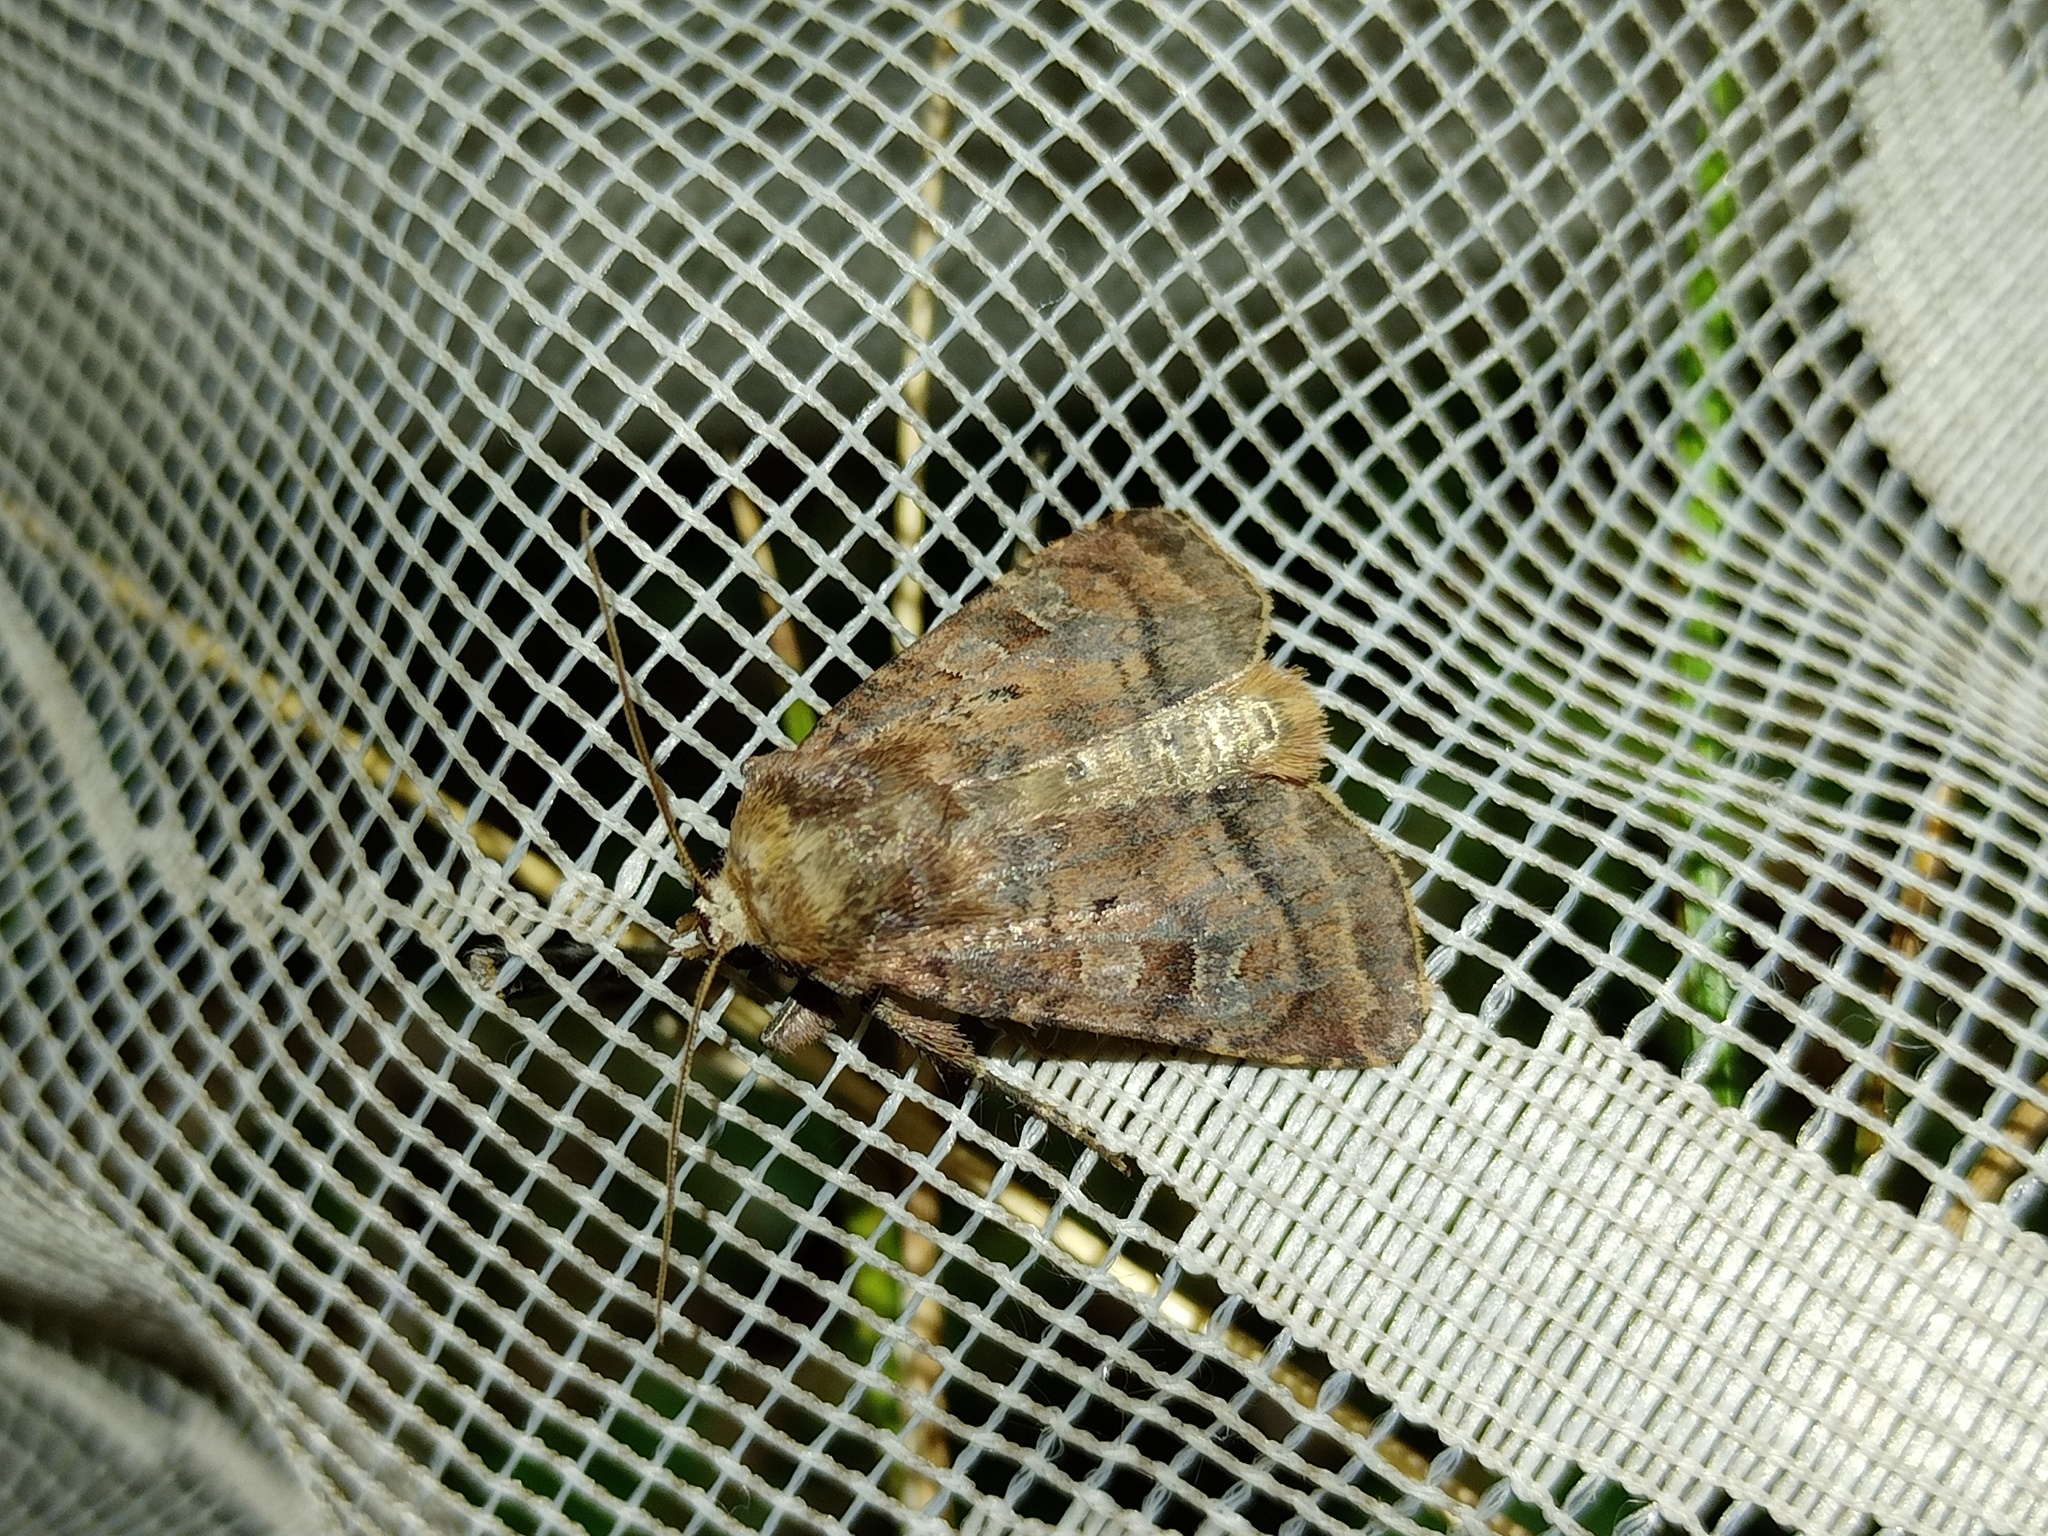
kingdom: Animalia
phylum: Arthropoda
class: Insecta
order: Lepidoptera
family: Noctuidae
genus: Diarsia
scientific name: Diarsia rubi
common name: Small square-spot
